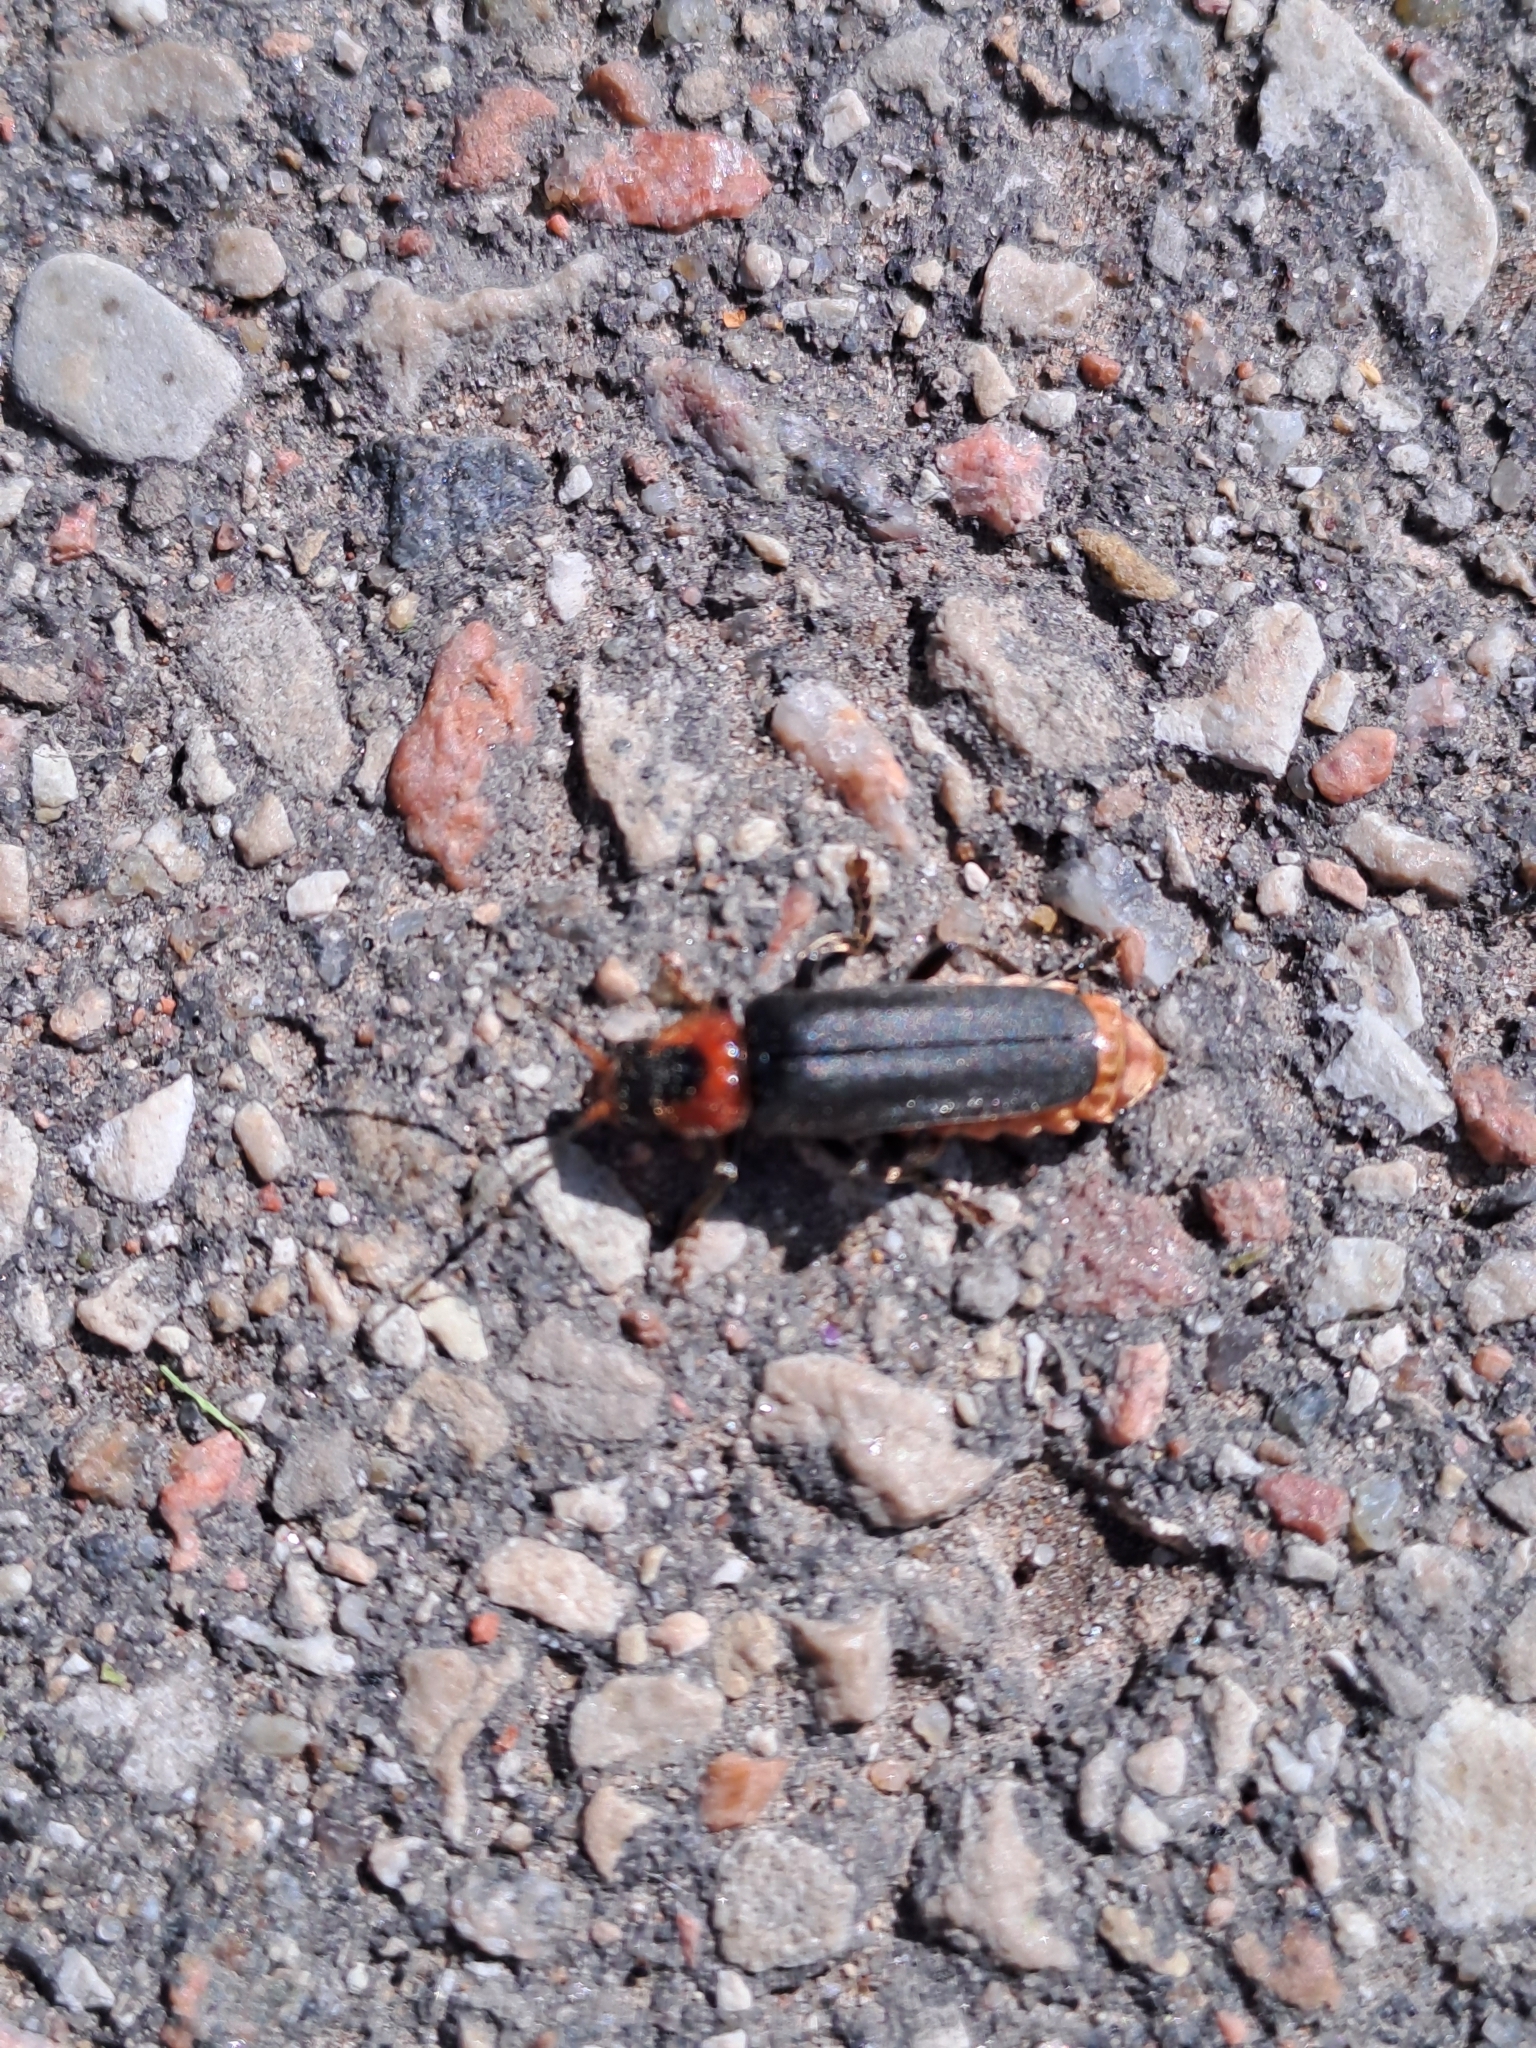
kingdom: Animalia
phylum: Arthropoda
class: Insecta
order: Coleoptera
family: Cantharidae
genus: Cantharis
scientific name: Cantharis fusca
